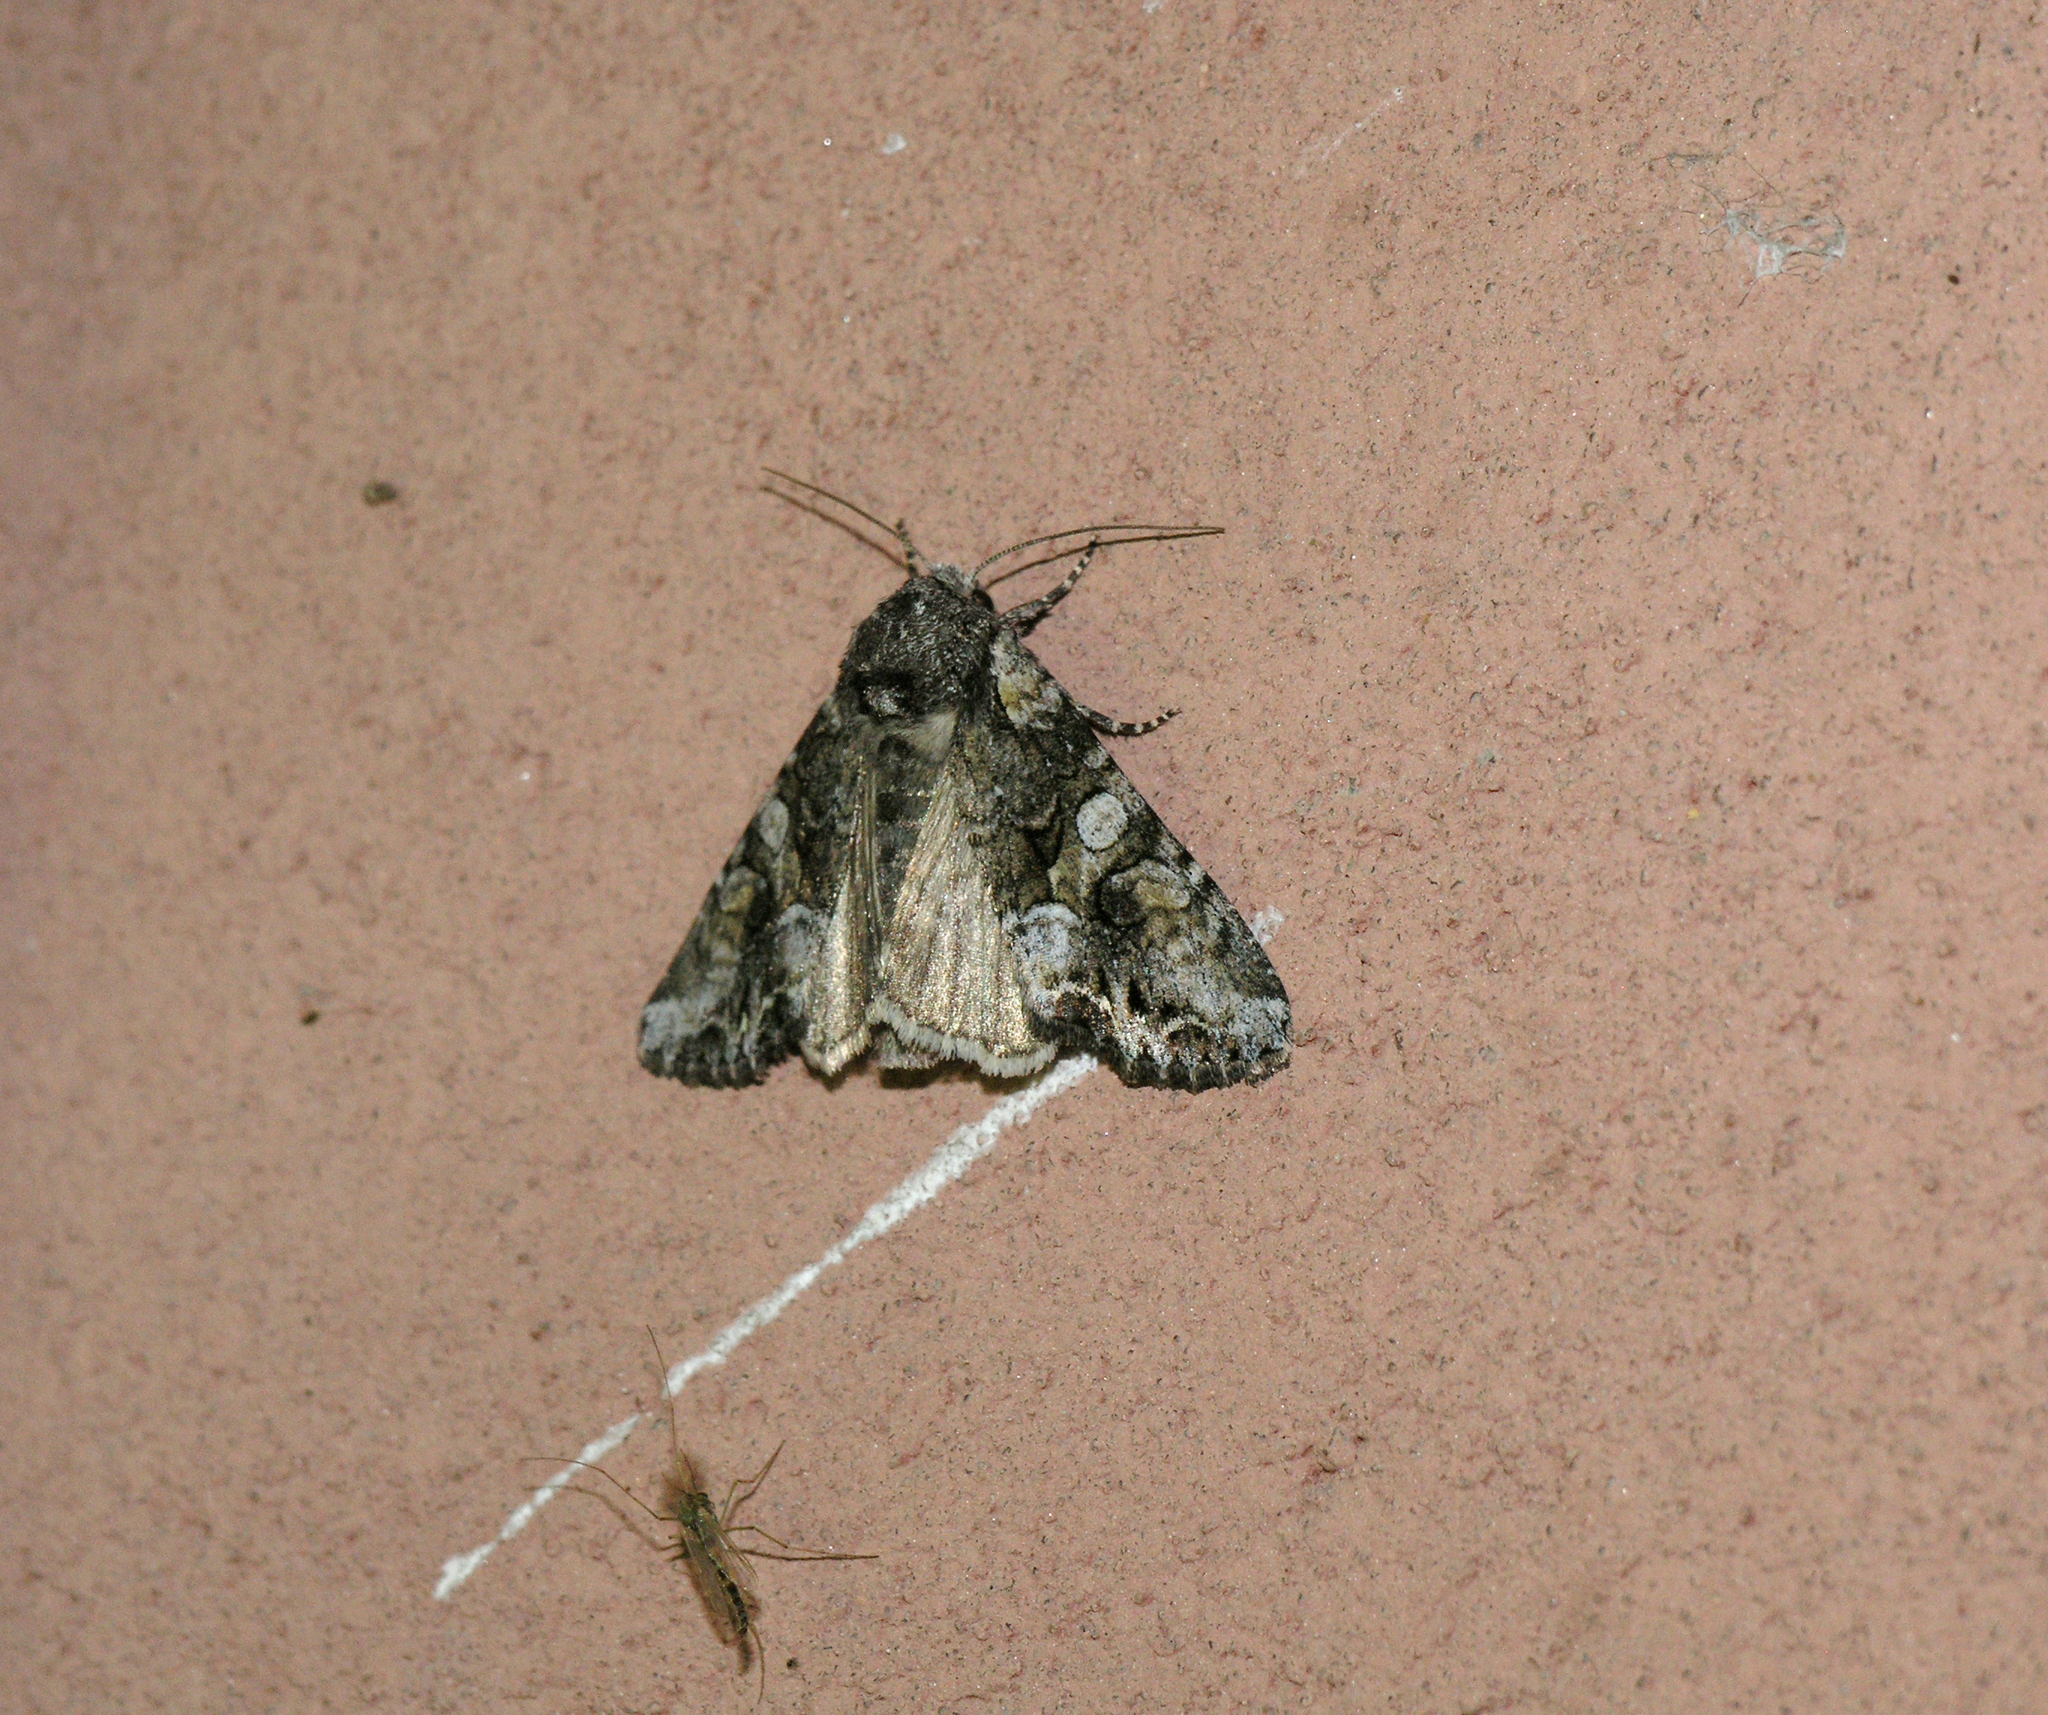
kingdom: Animalia
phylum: Arthropoda
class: Insecta
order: Lepidoptera
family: Noctuidae
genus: Lacanobia
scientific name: Lacanobia contigua
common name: Beautiful brocade
